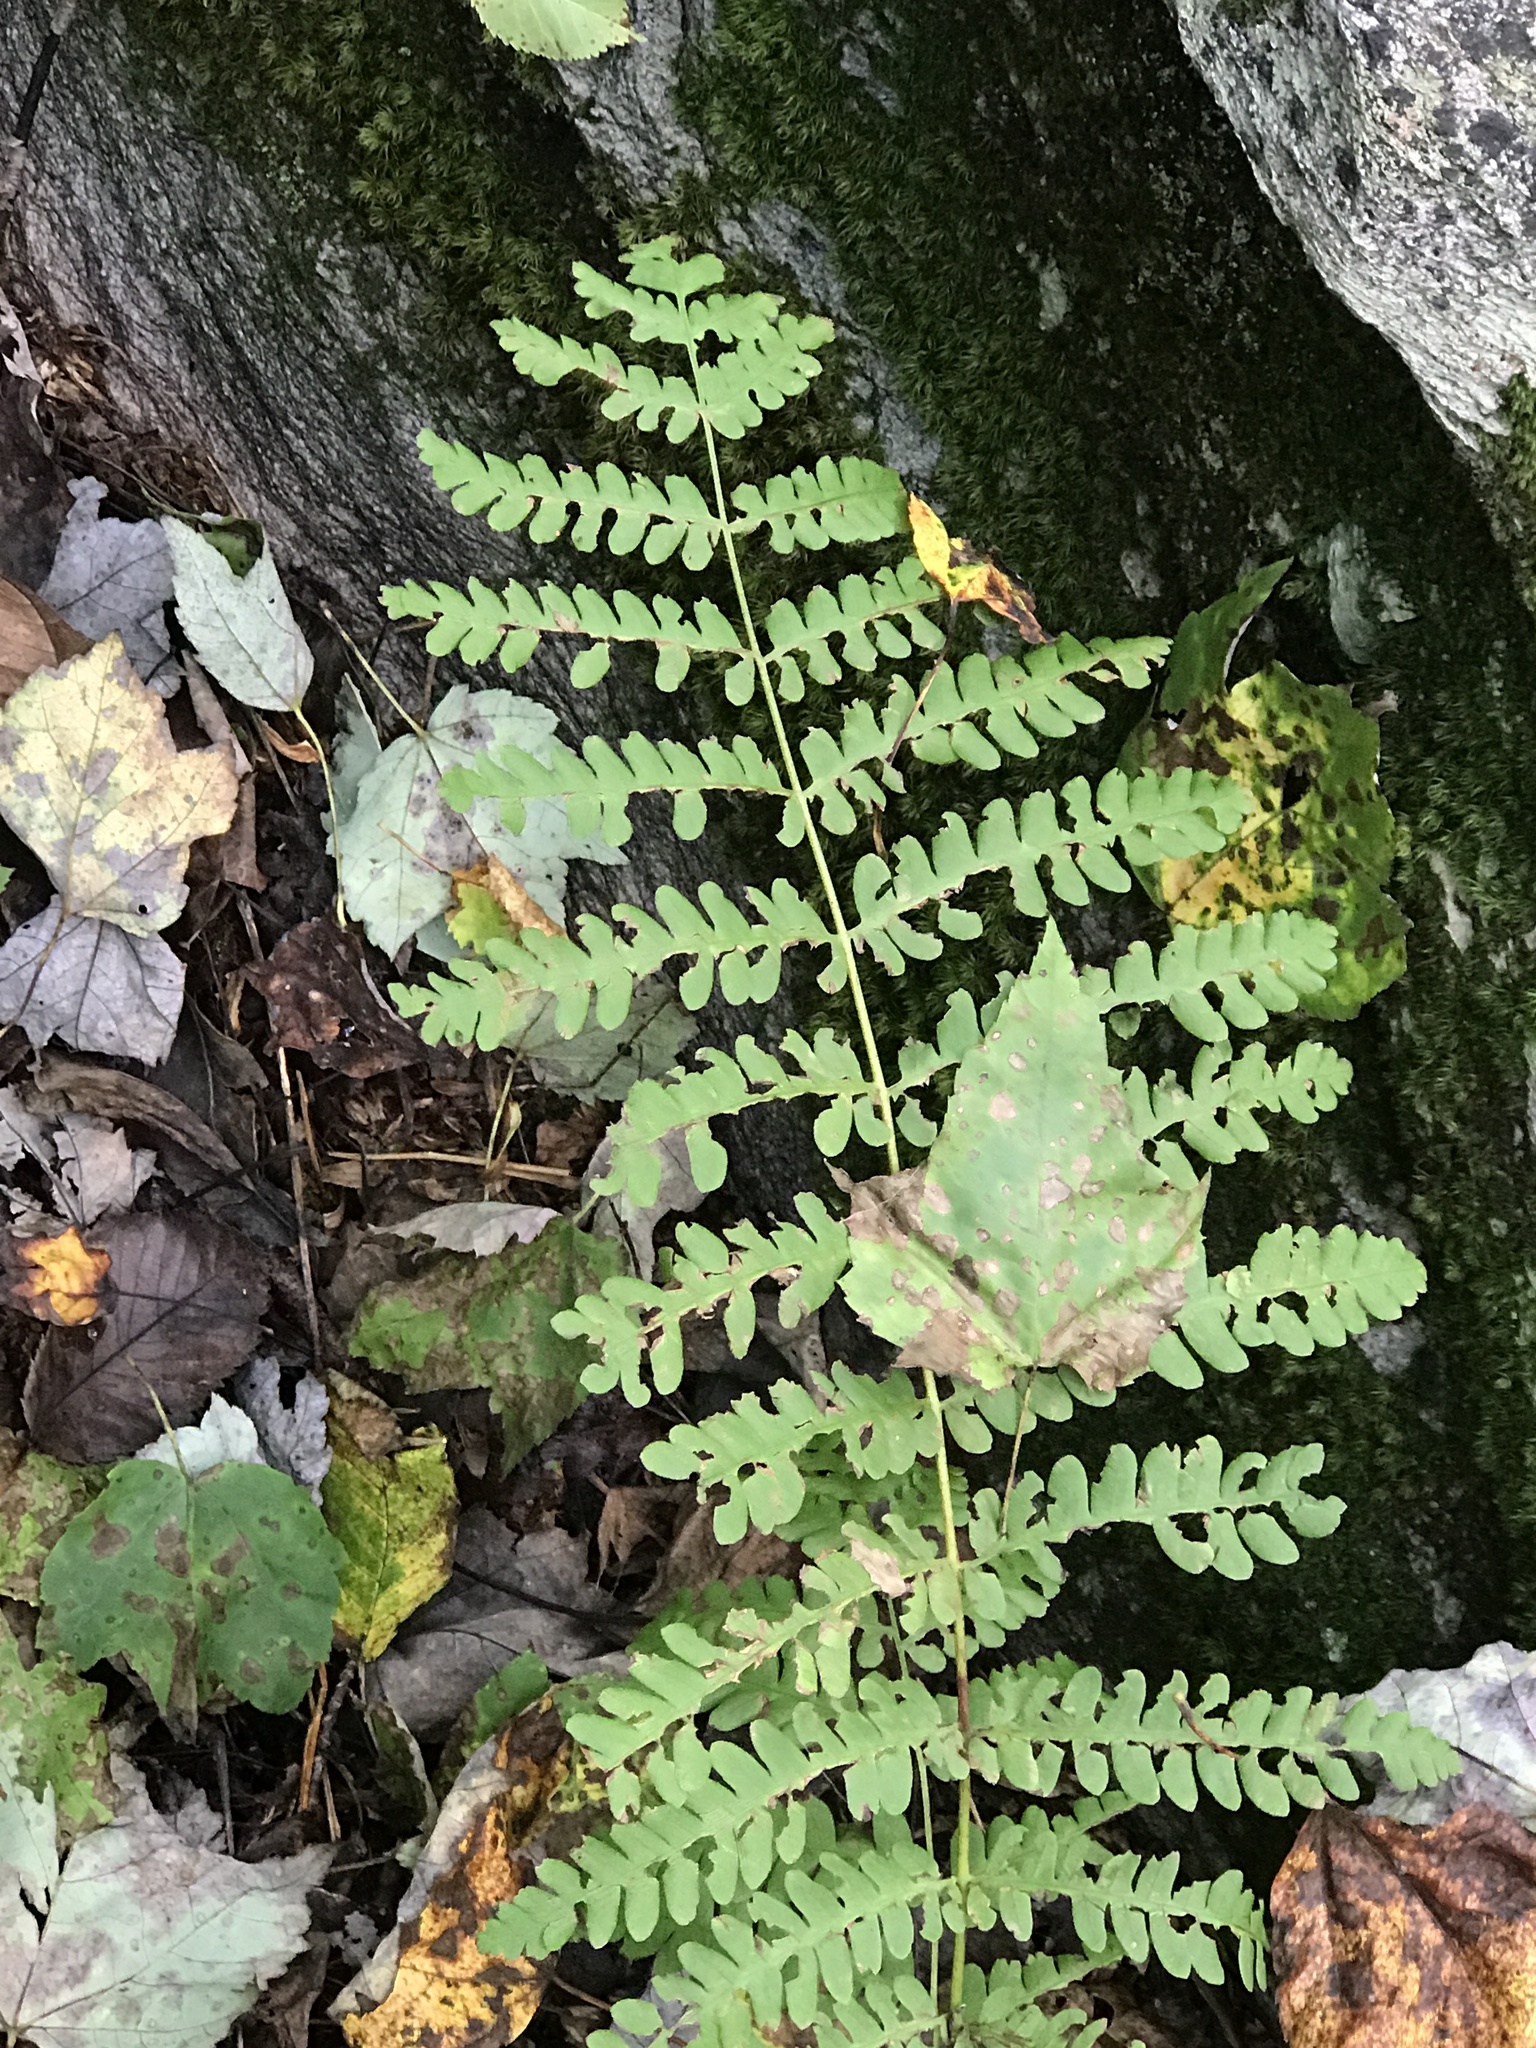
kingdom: Plantae
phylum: Tracheophyta
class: Polypodiopsida
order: Osmundales
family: Osmundaceae
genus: Claytosmunda
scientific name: Claytosmunda claytoniana
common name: Clayton's fern
